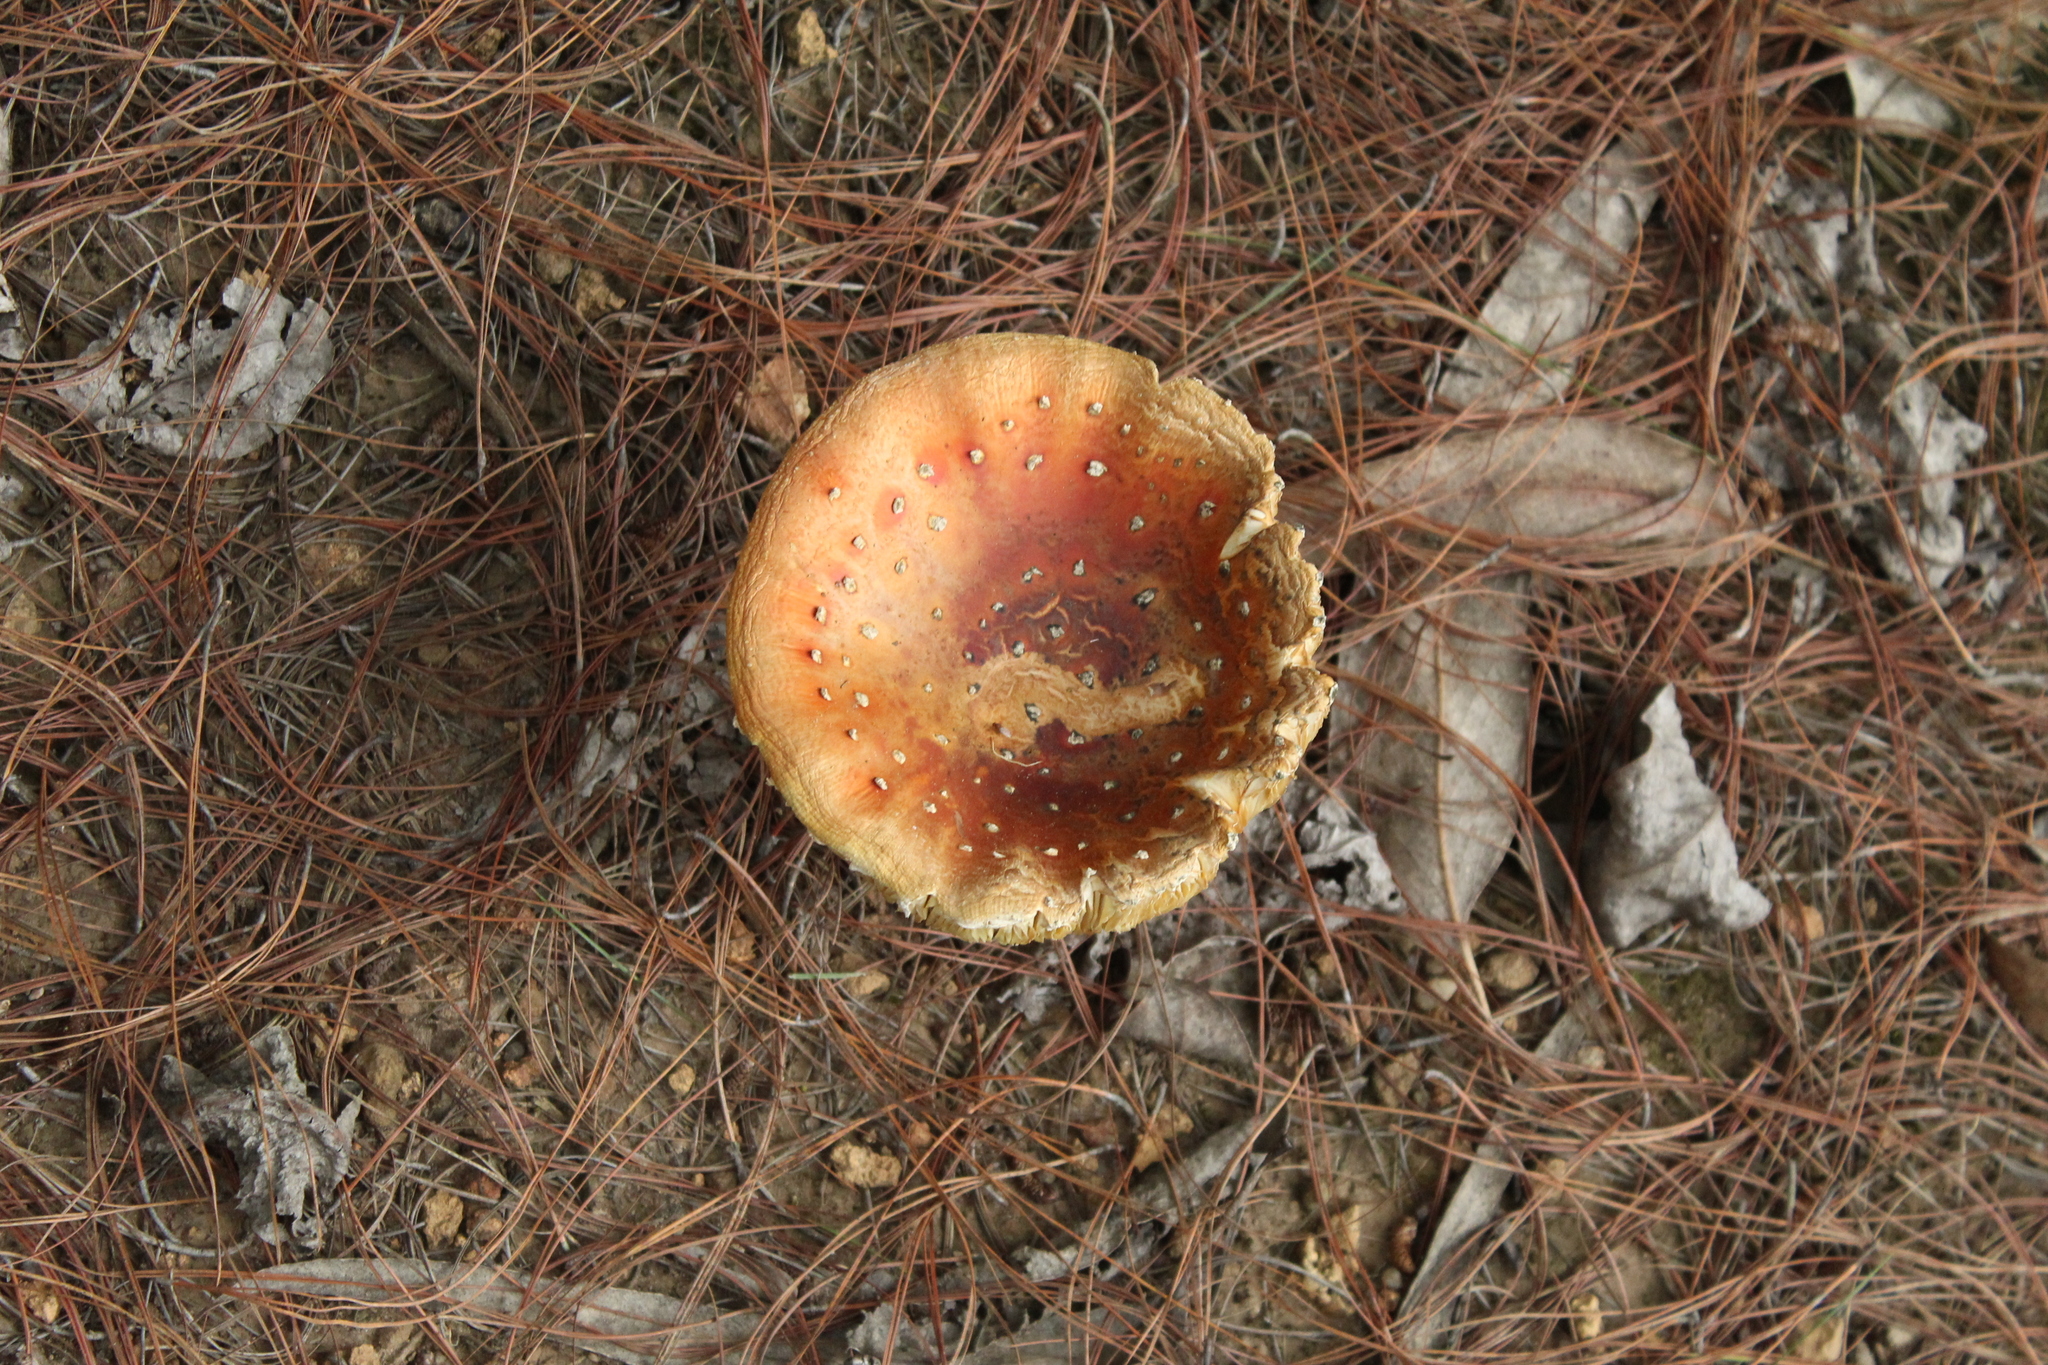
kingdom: Fungi
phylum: Basidiomycota
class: Agaricomycetes
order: Agaricales
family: Amanitaceae
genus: Amanita
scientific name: Amanita muscaria
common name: Fly agaric
